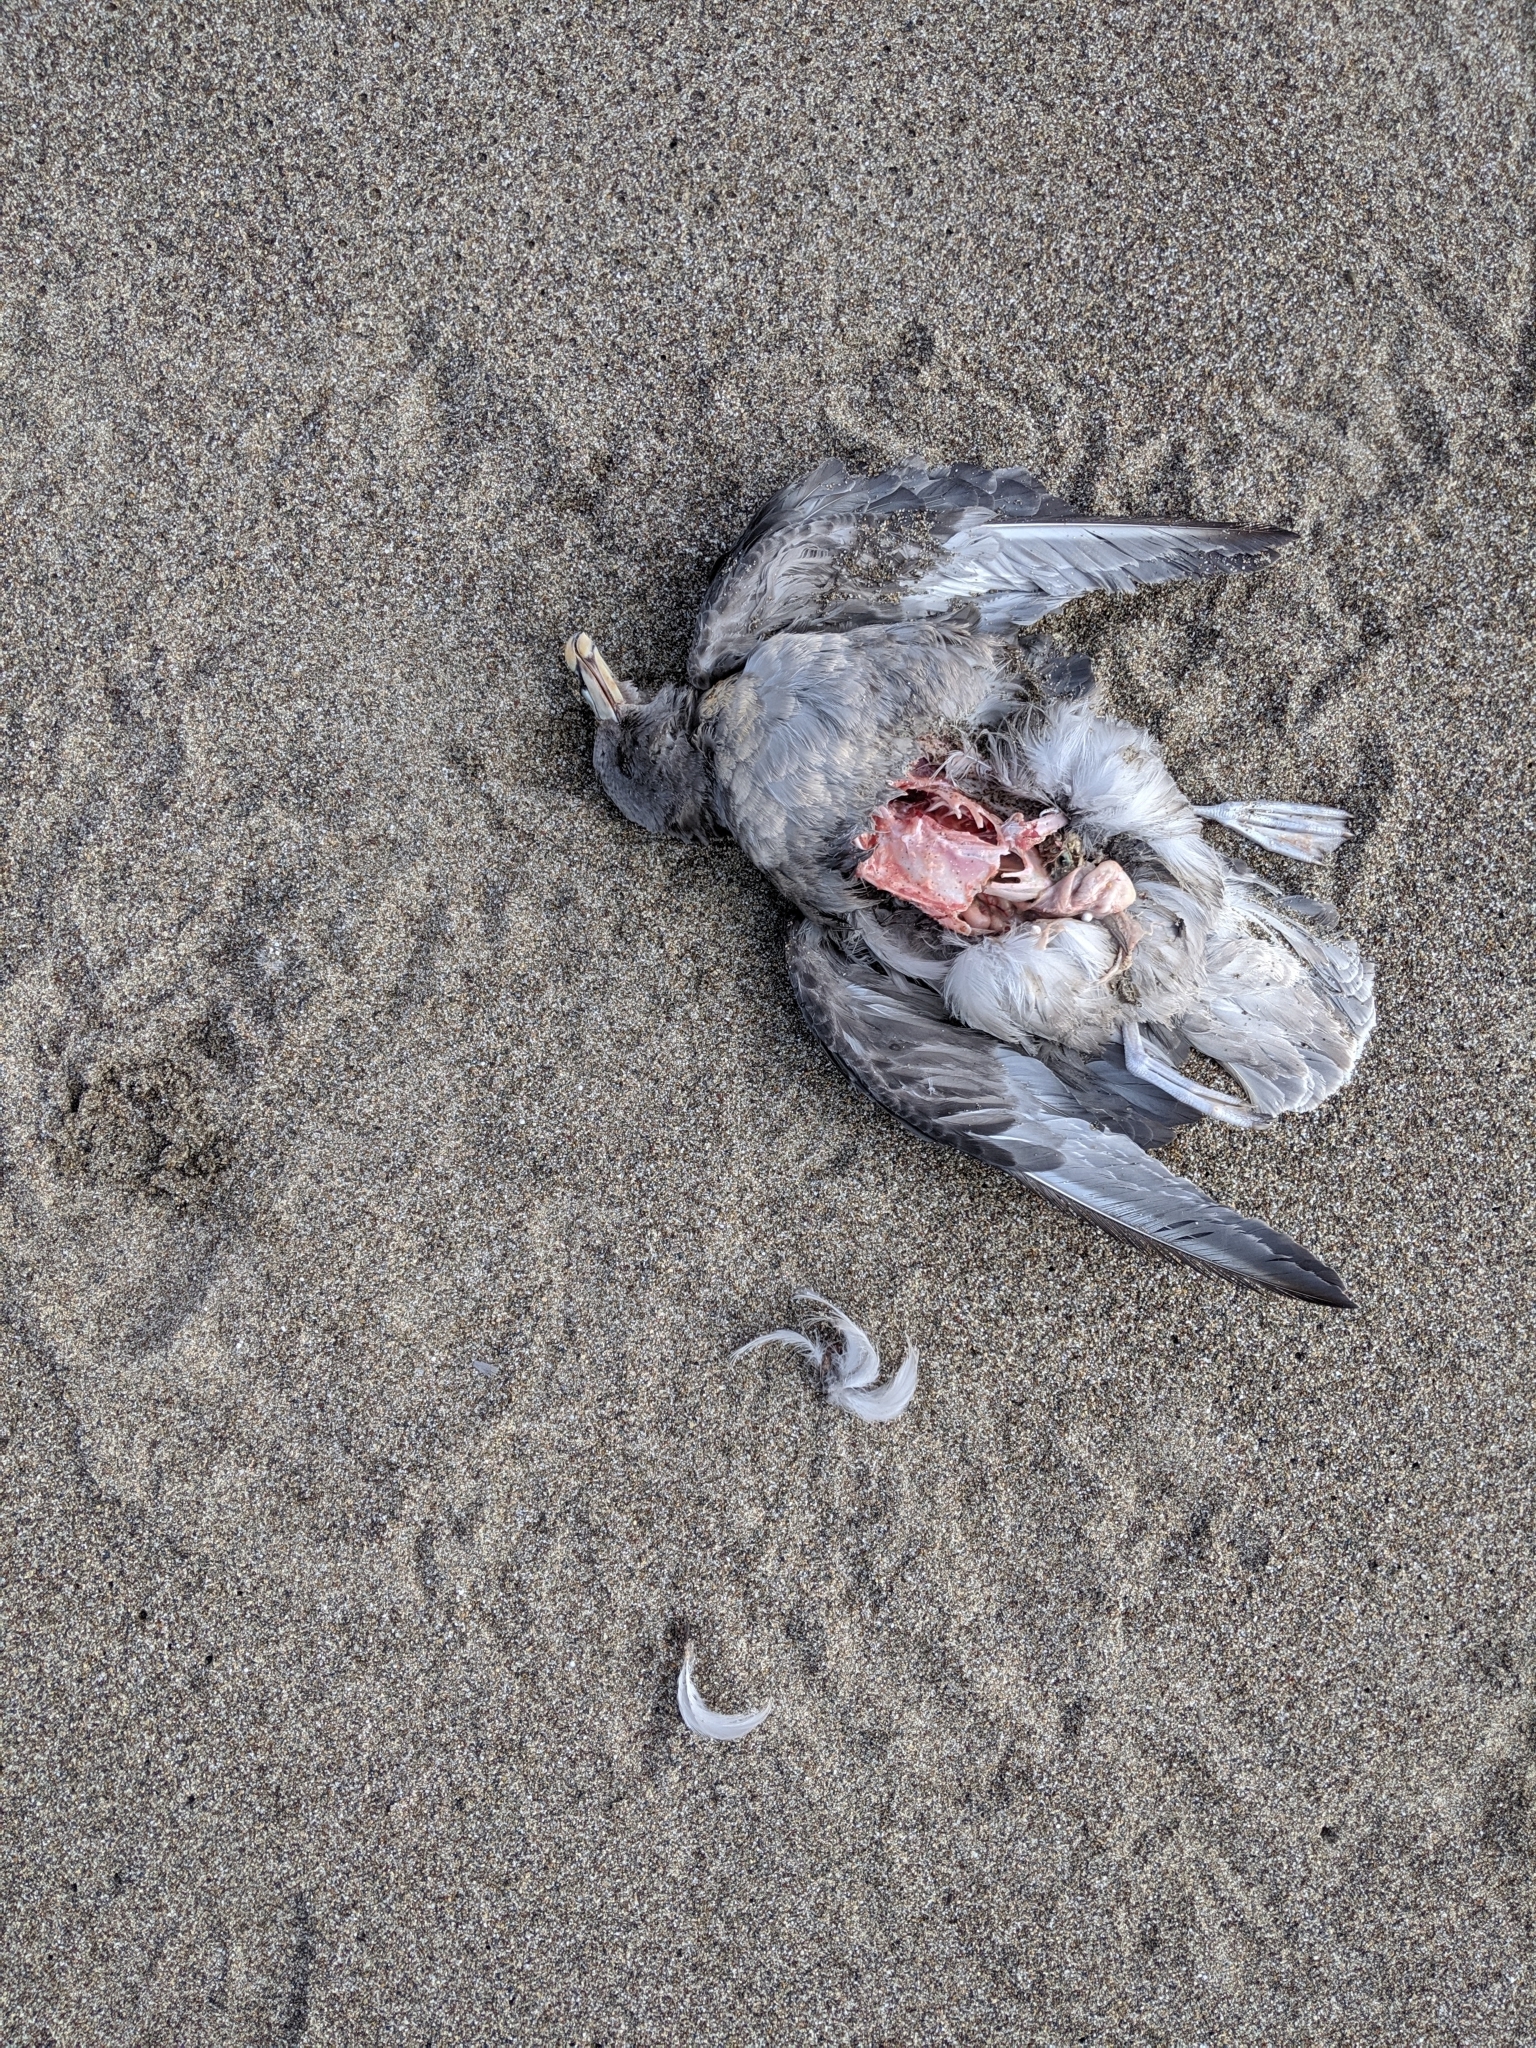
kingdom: Animalia
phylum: Chordata
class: Aves
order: Procellariiformes
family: Procellariidae
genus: Fulmarus
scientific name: Fulmarus glacialis
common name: Northern fulmar
